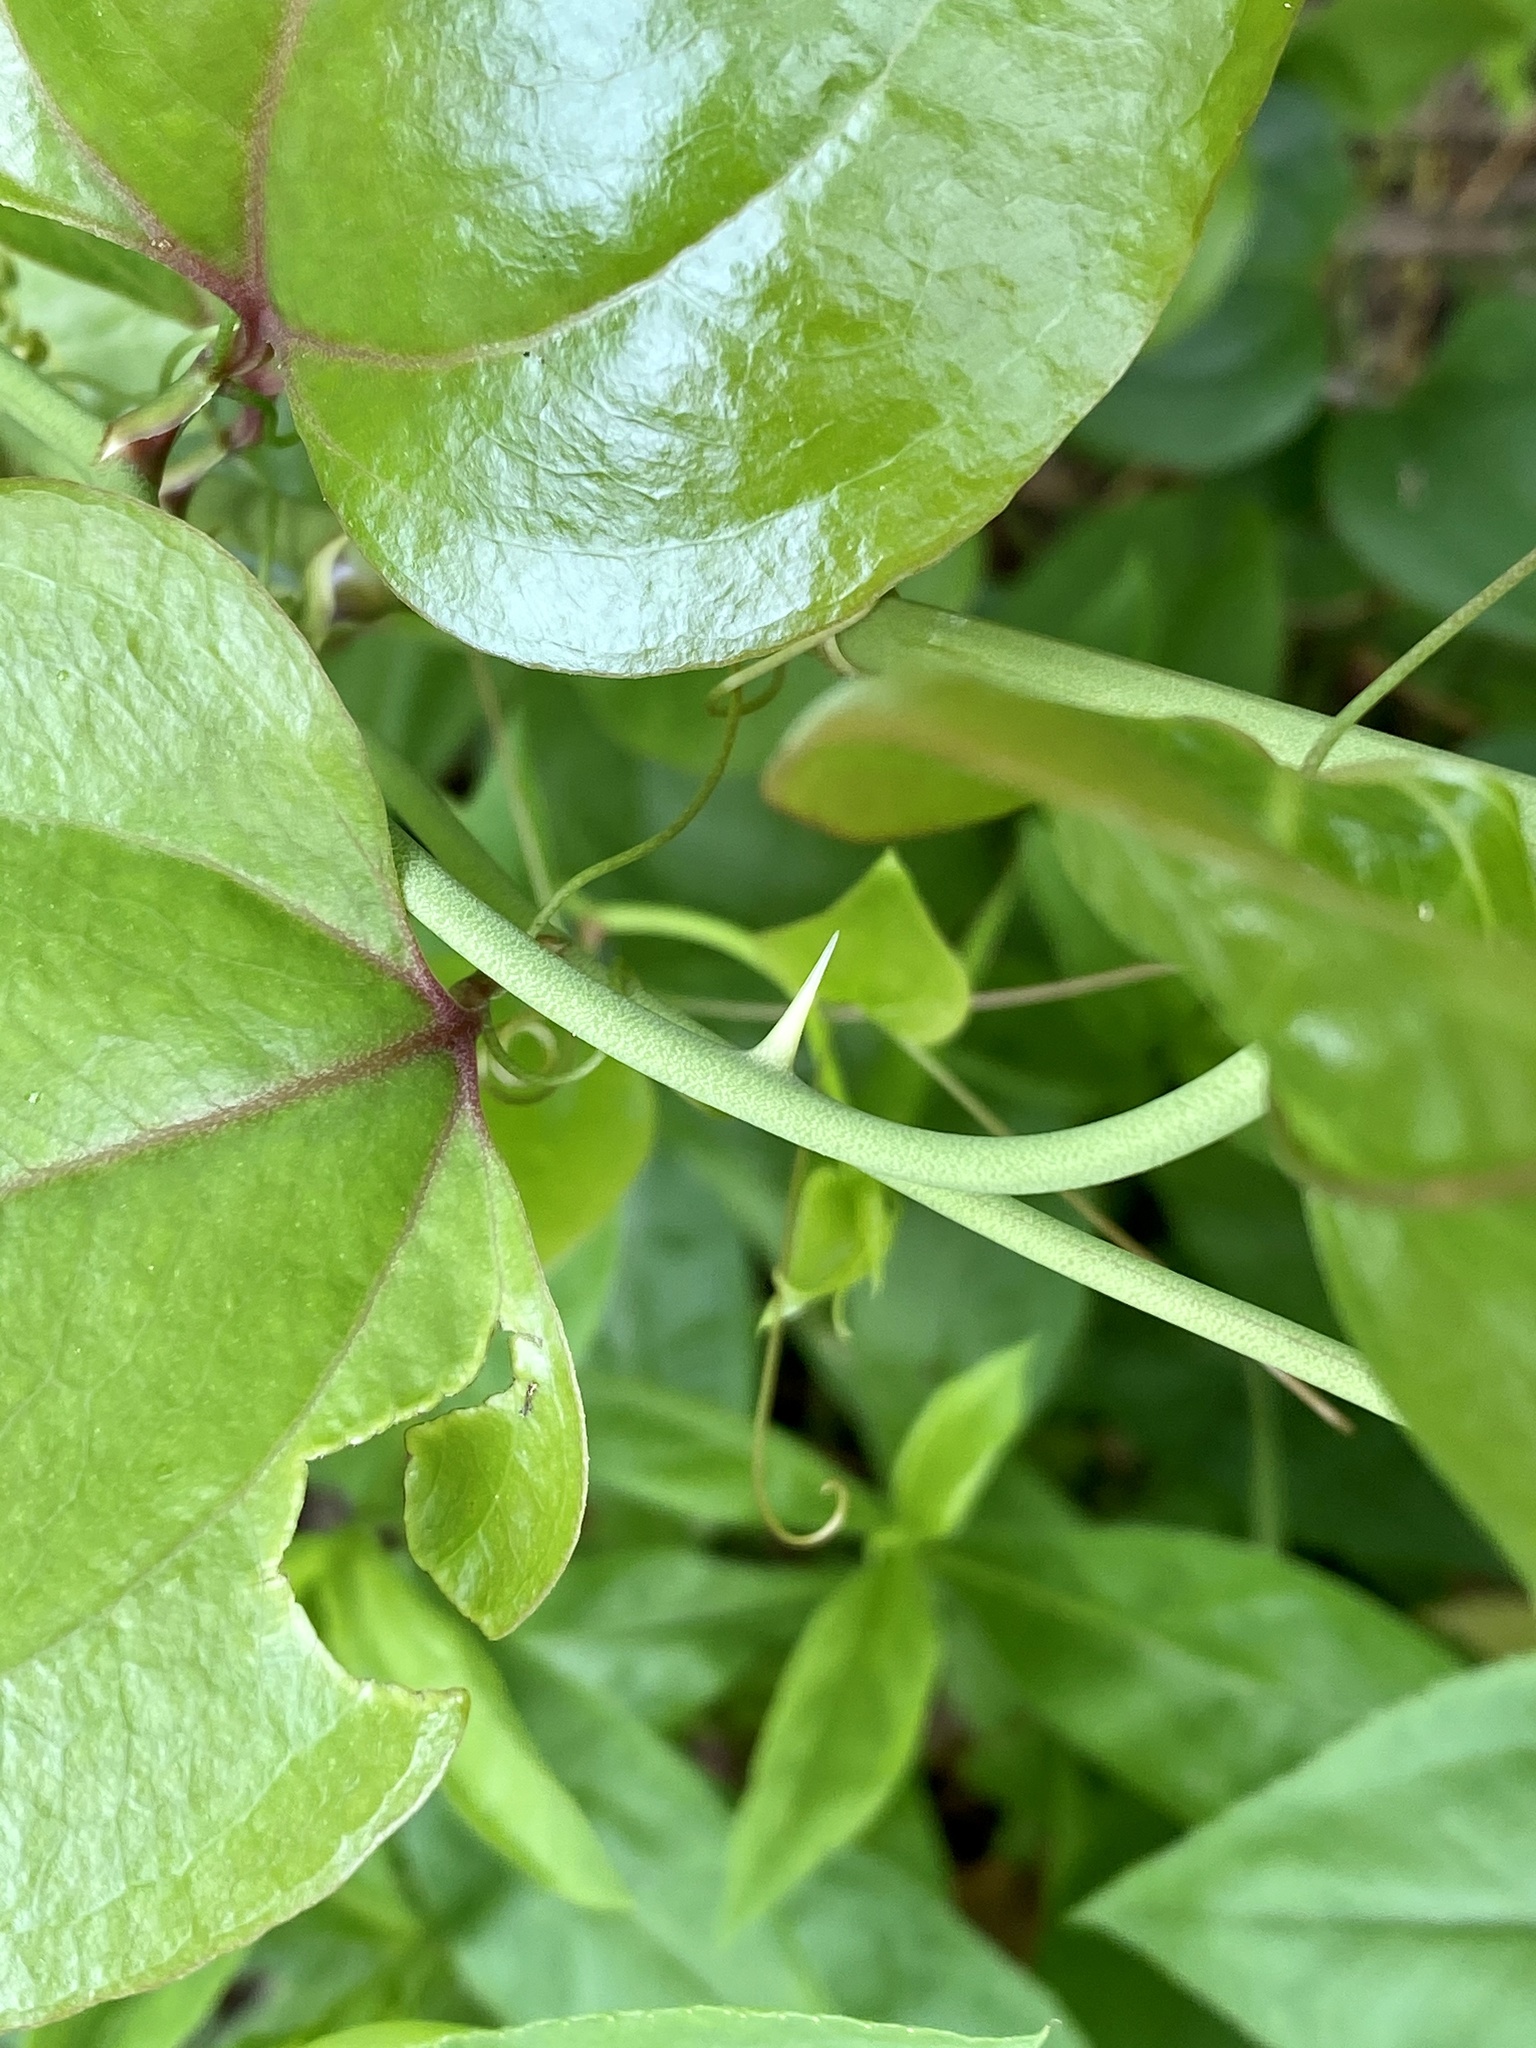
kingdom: Plantae
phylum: Tracheophyta
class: Liliopsida
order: Liliales
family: Smilacaceae
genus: Smilax
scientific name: Smilax rotundifolia
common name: Bullbriar
